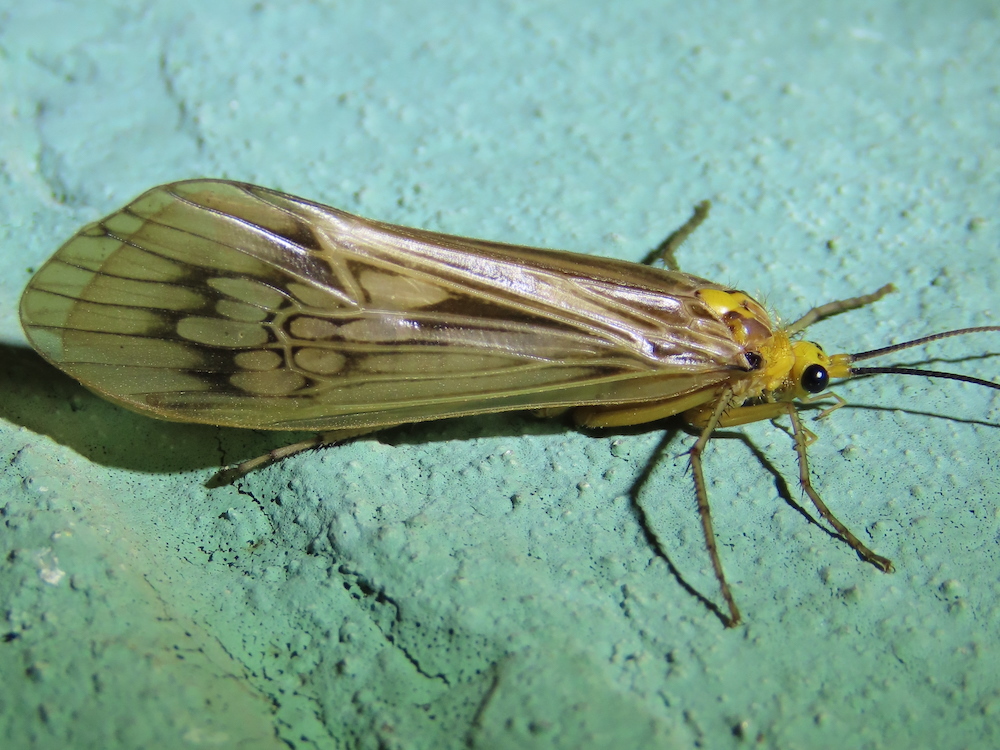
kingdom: Animalia
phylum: Arthropoda
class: Insecta
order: Trichoptera
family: Limnephilidae
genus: Hydatophylax
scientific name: Hydatophylax argus
